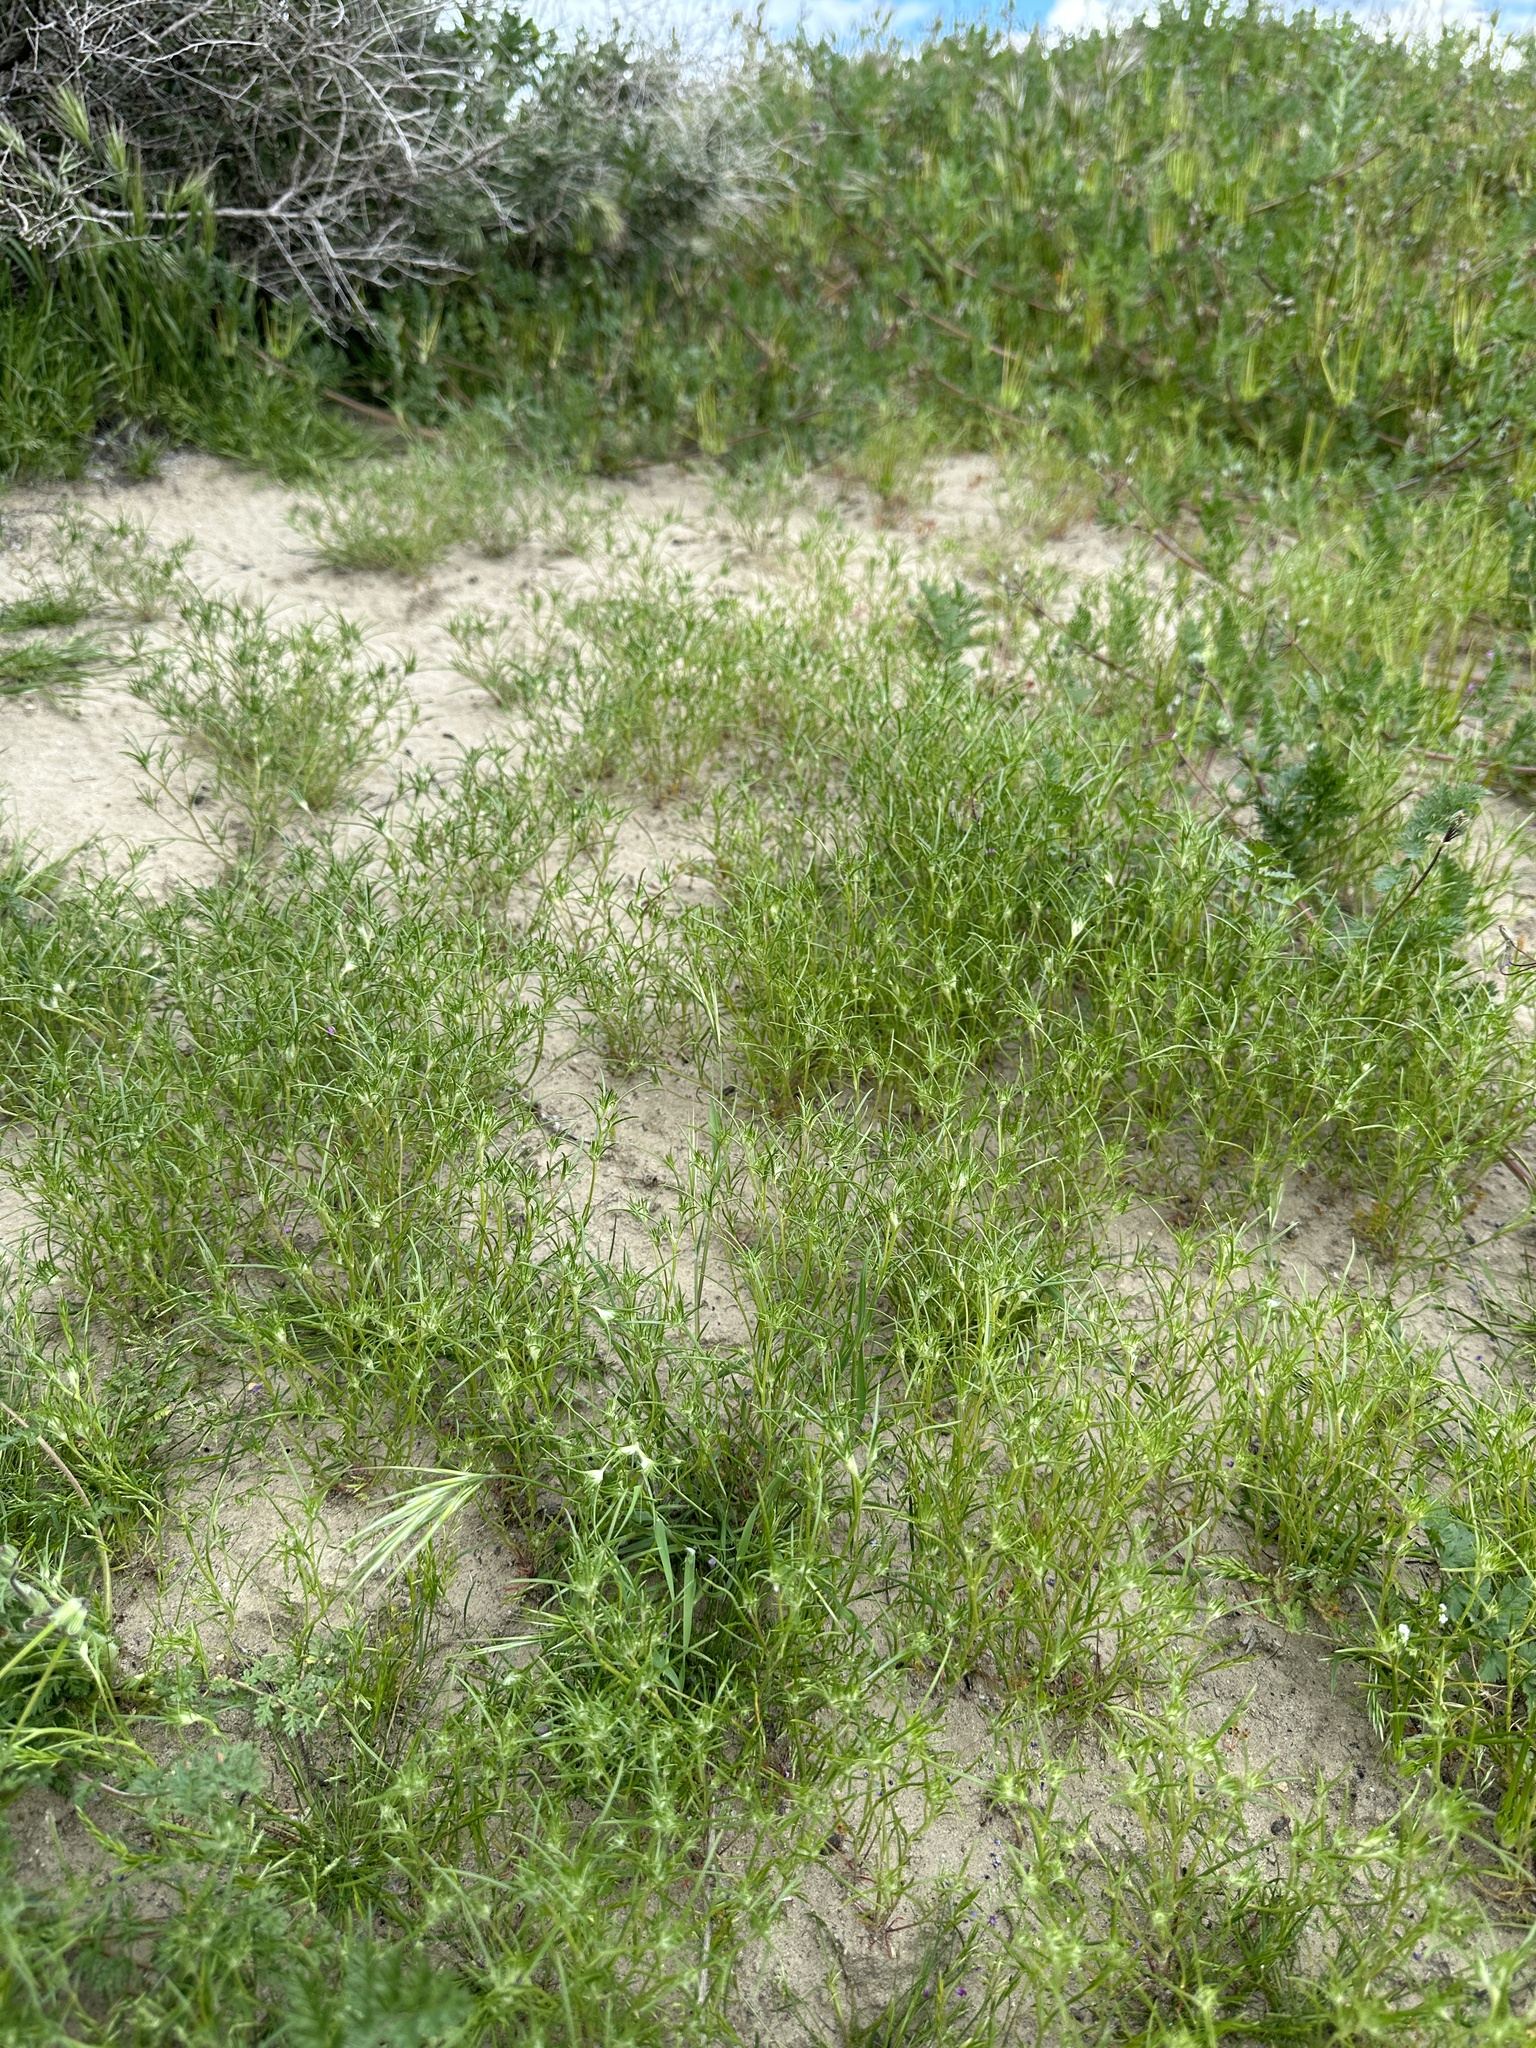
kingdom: Plantae
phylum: Tracheophyta
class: Magnoliopsida
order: Ericales
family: Polemoniaceae
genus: Eriastrum
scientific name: Eriastrum hooveri
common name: Hoover's woolly-star
